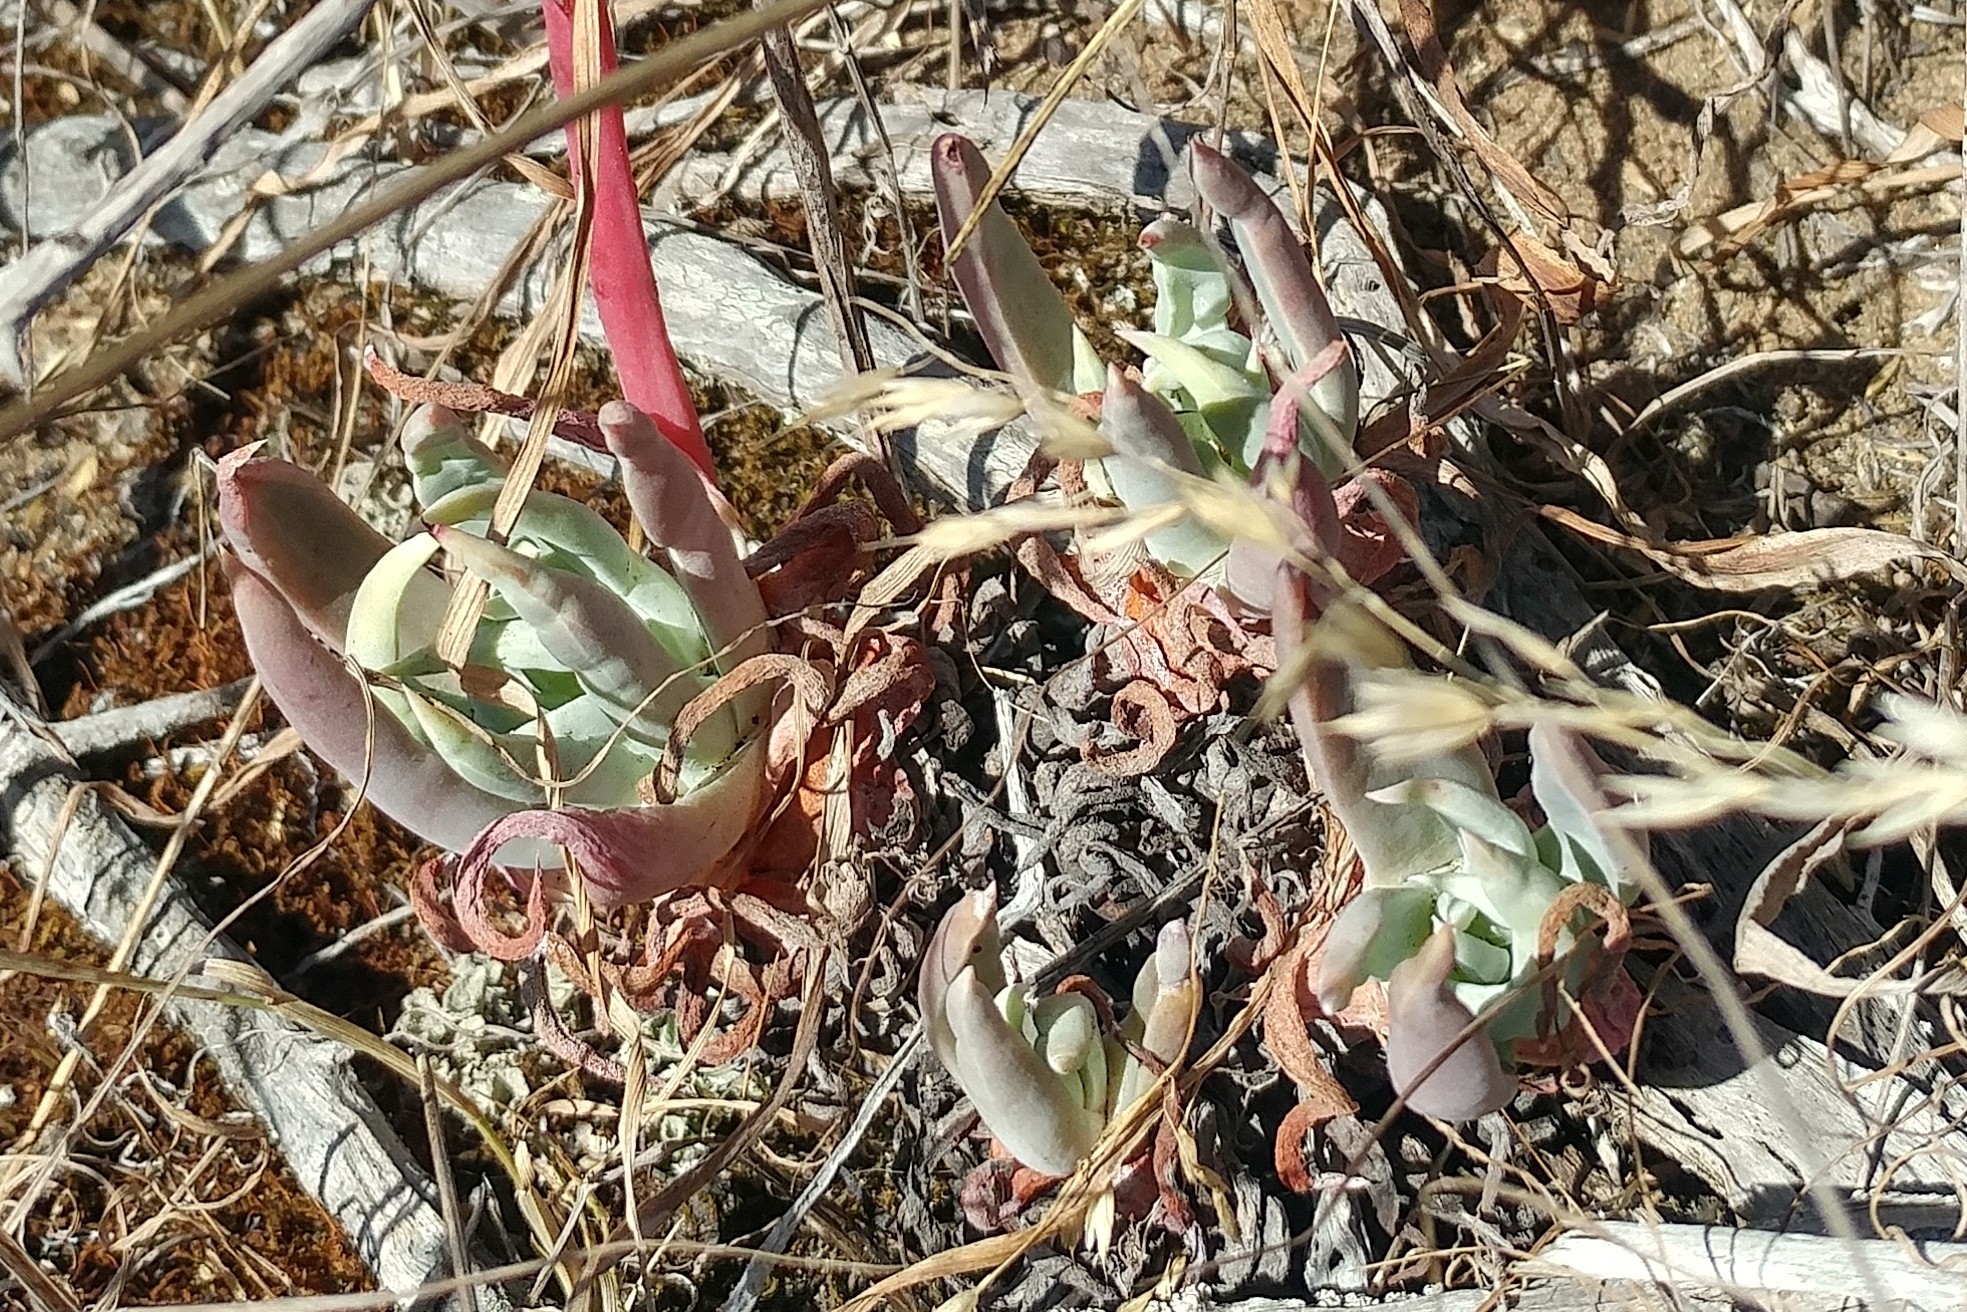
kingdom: Plantae
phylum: Tracheophyta
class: Magnoliopsida
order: Saxifragales
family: Crassulaceae
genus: Dudleya
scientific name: Dudleya caespitosa
